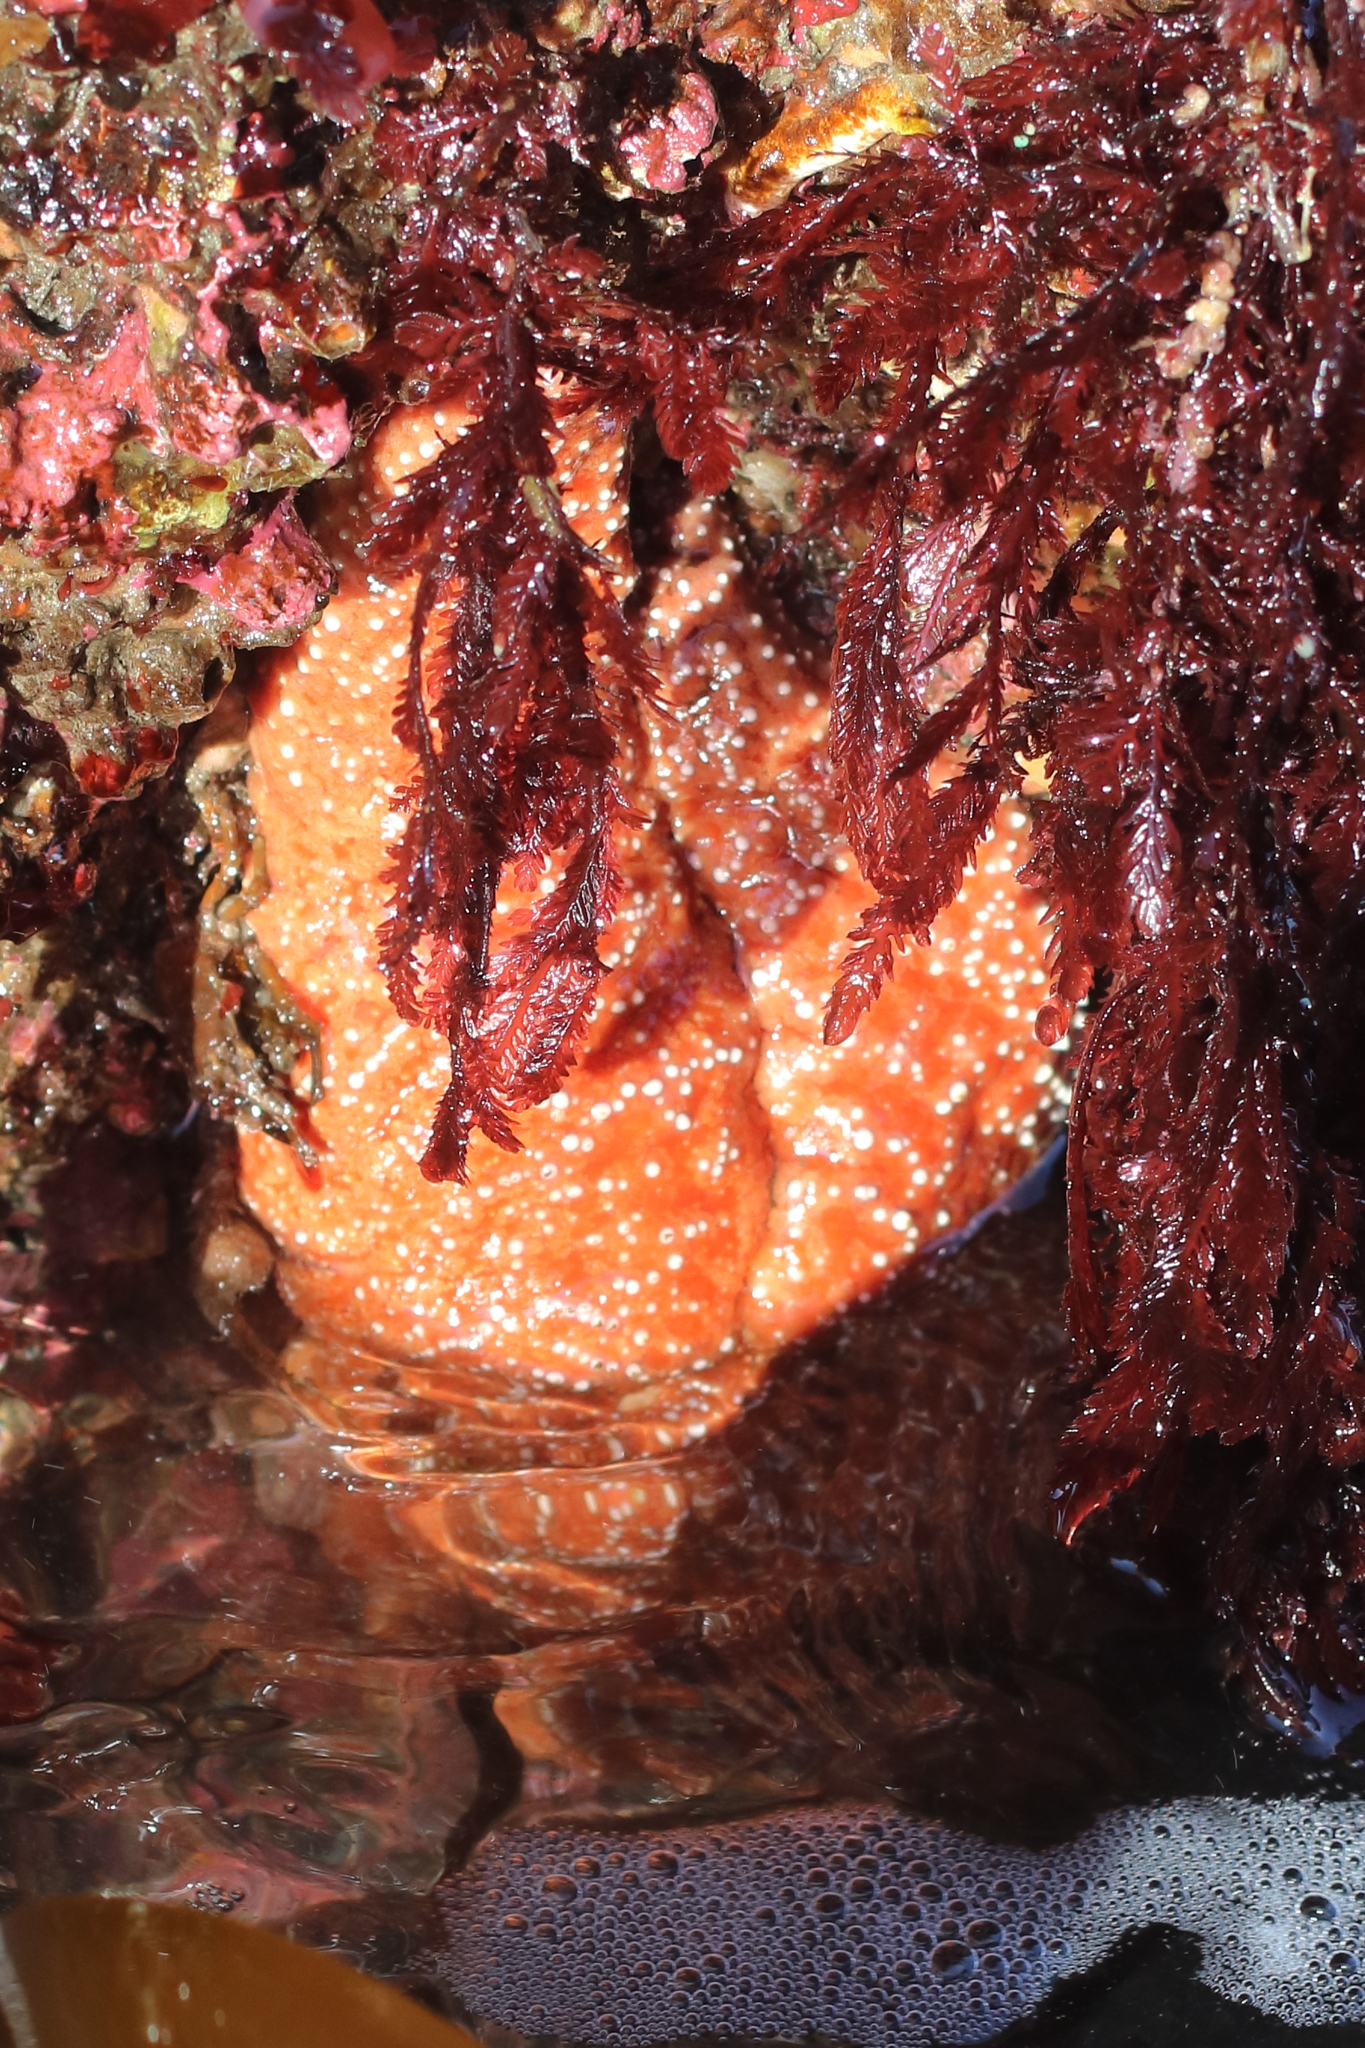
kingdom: Animalia
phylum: Echinodermata
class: Asteroidea
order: Forcipulatida
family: Asteriidae
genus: Pisaster
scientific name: Pisaster ochraceus
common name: Ochre stars
